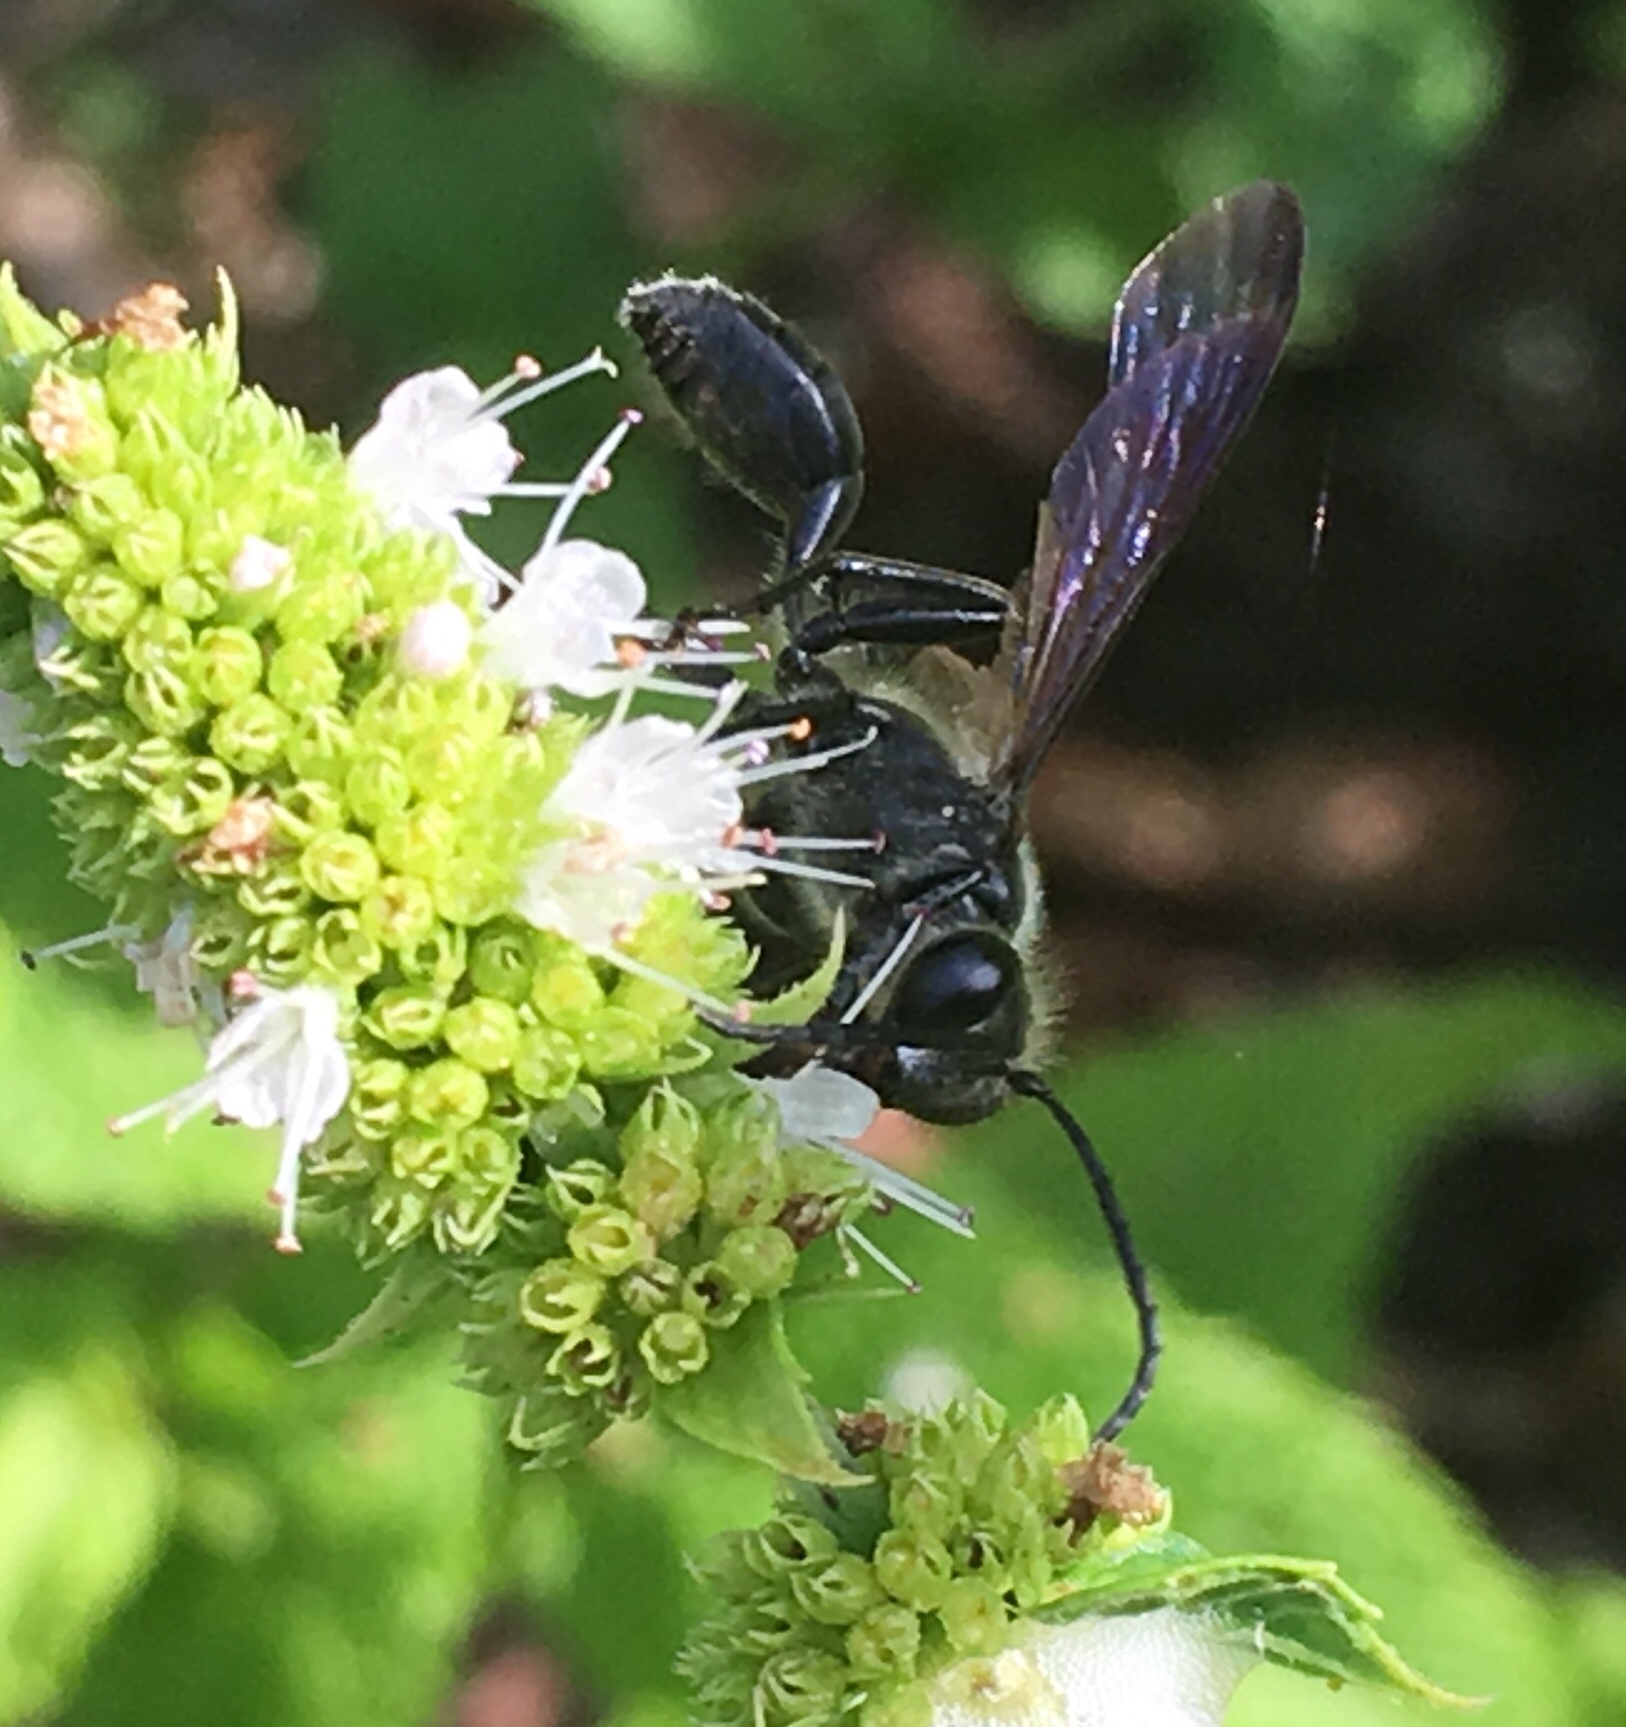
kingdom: Animalia
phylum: Arthropoda
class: Insecta
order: Hymenoptera
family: Sphecidae
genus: Isodontia
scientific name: Isodontia mexicana
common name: Mud dauber
